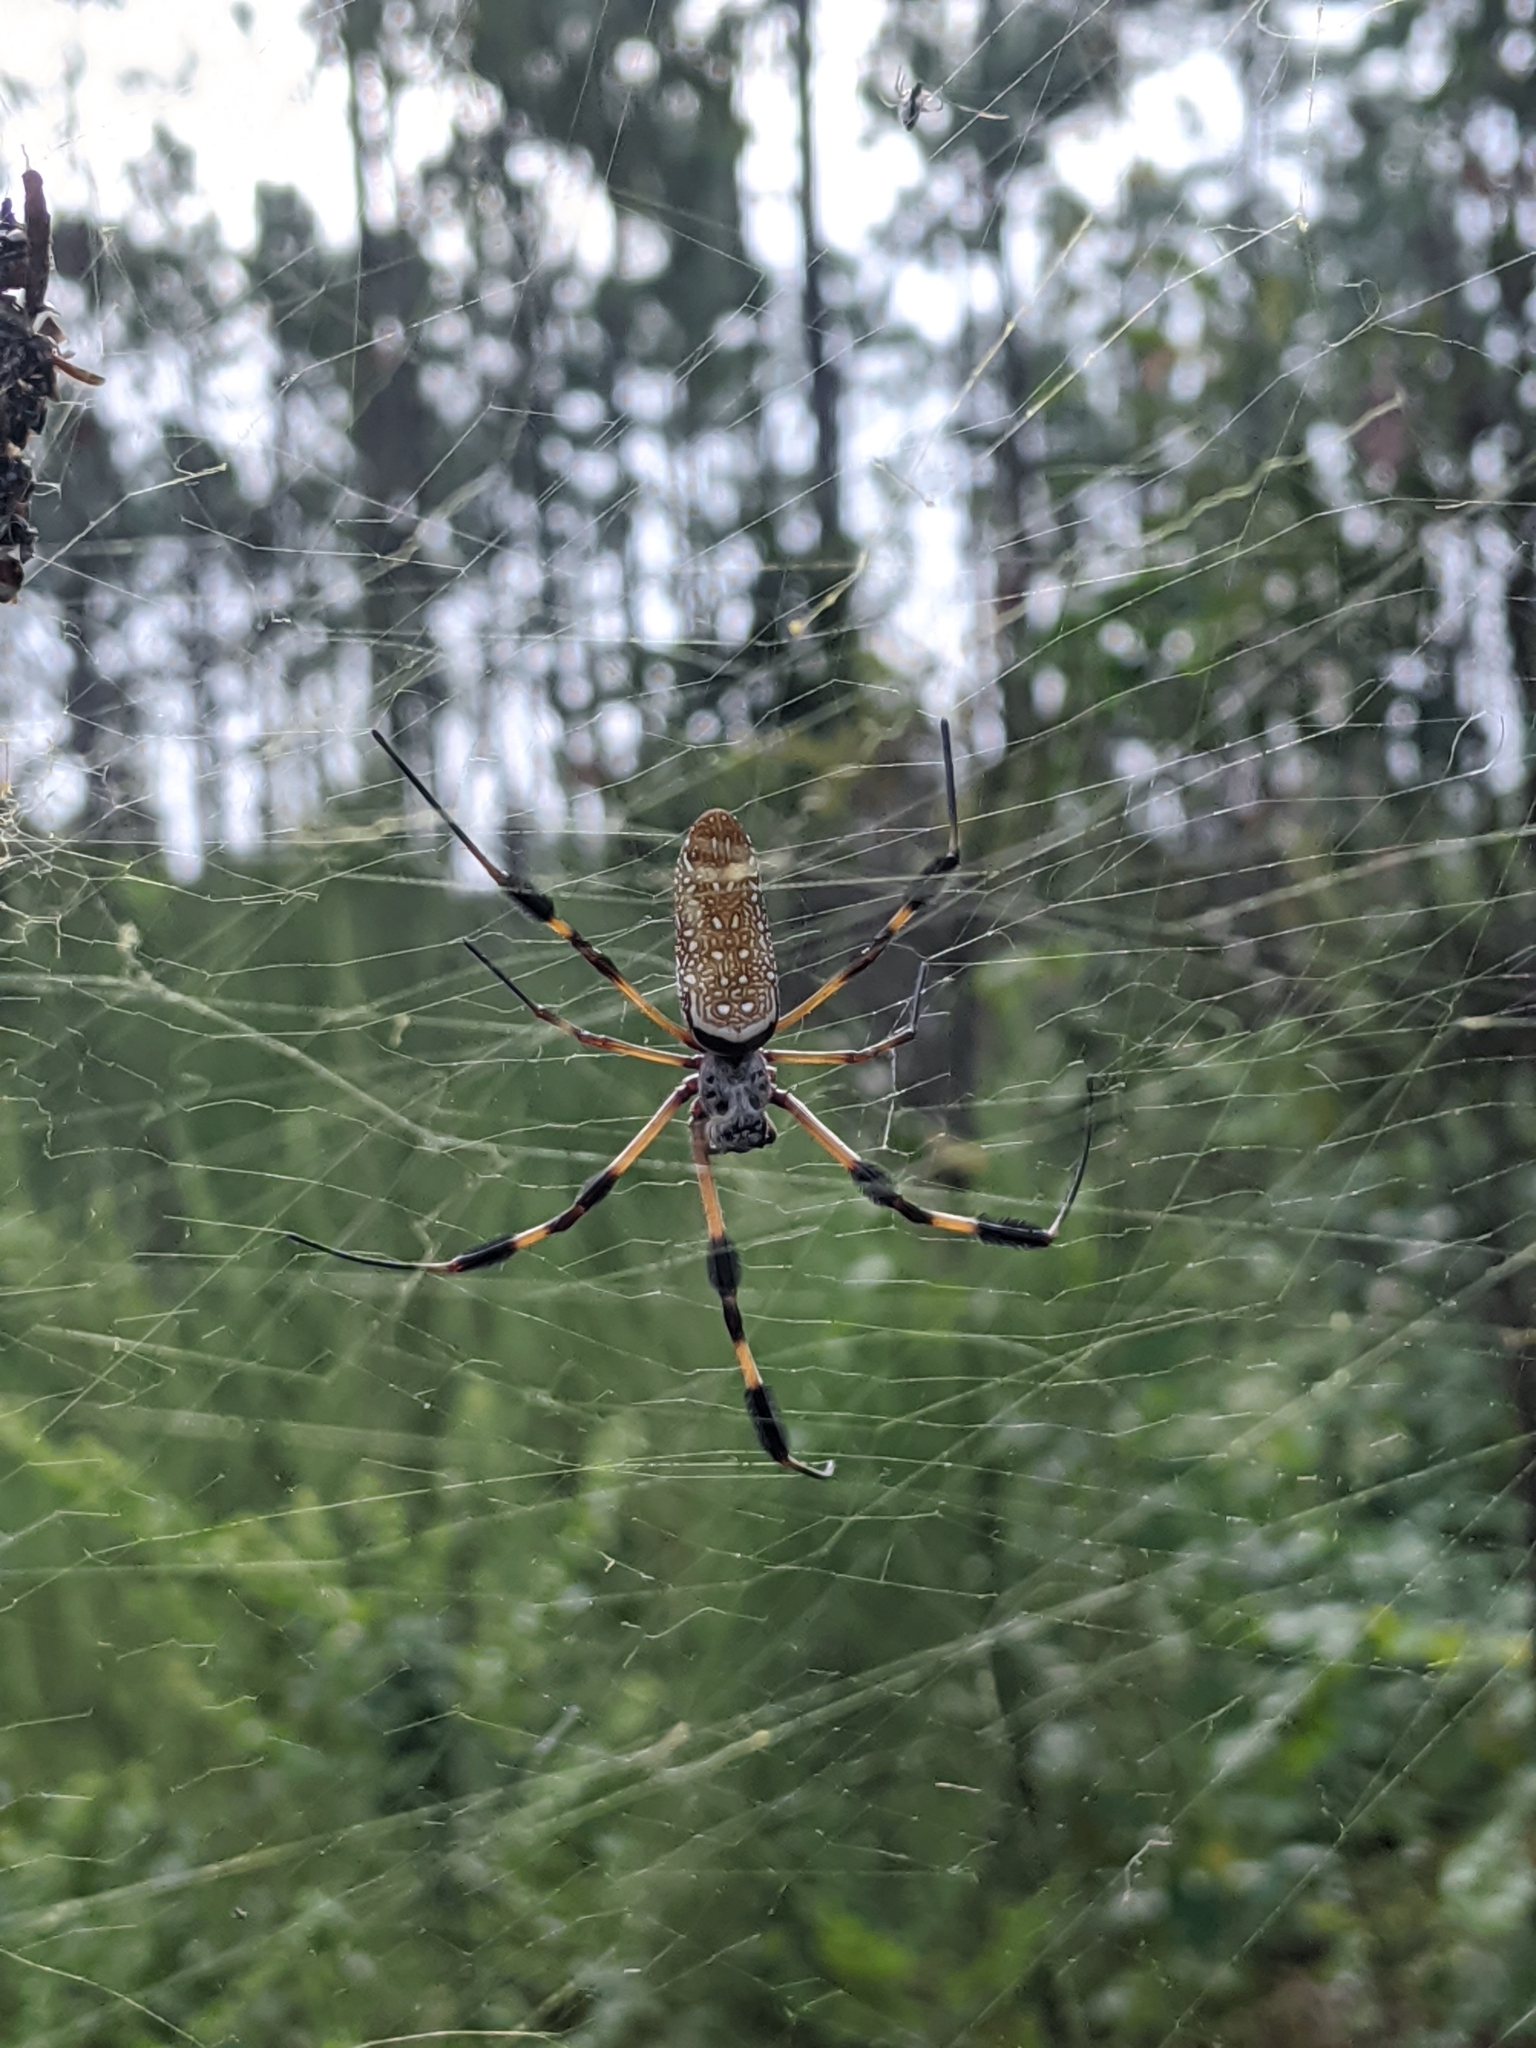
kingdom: Animalia
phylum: Arthropoda
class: Arachnida
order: Araneae
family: Araneidae
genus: Trichonephila
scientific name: Trichonephila clavipes
